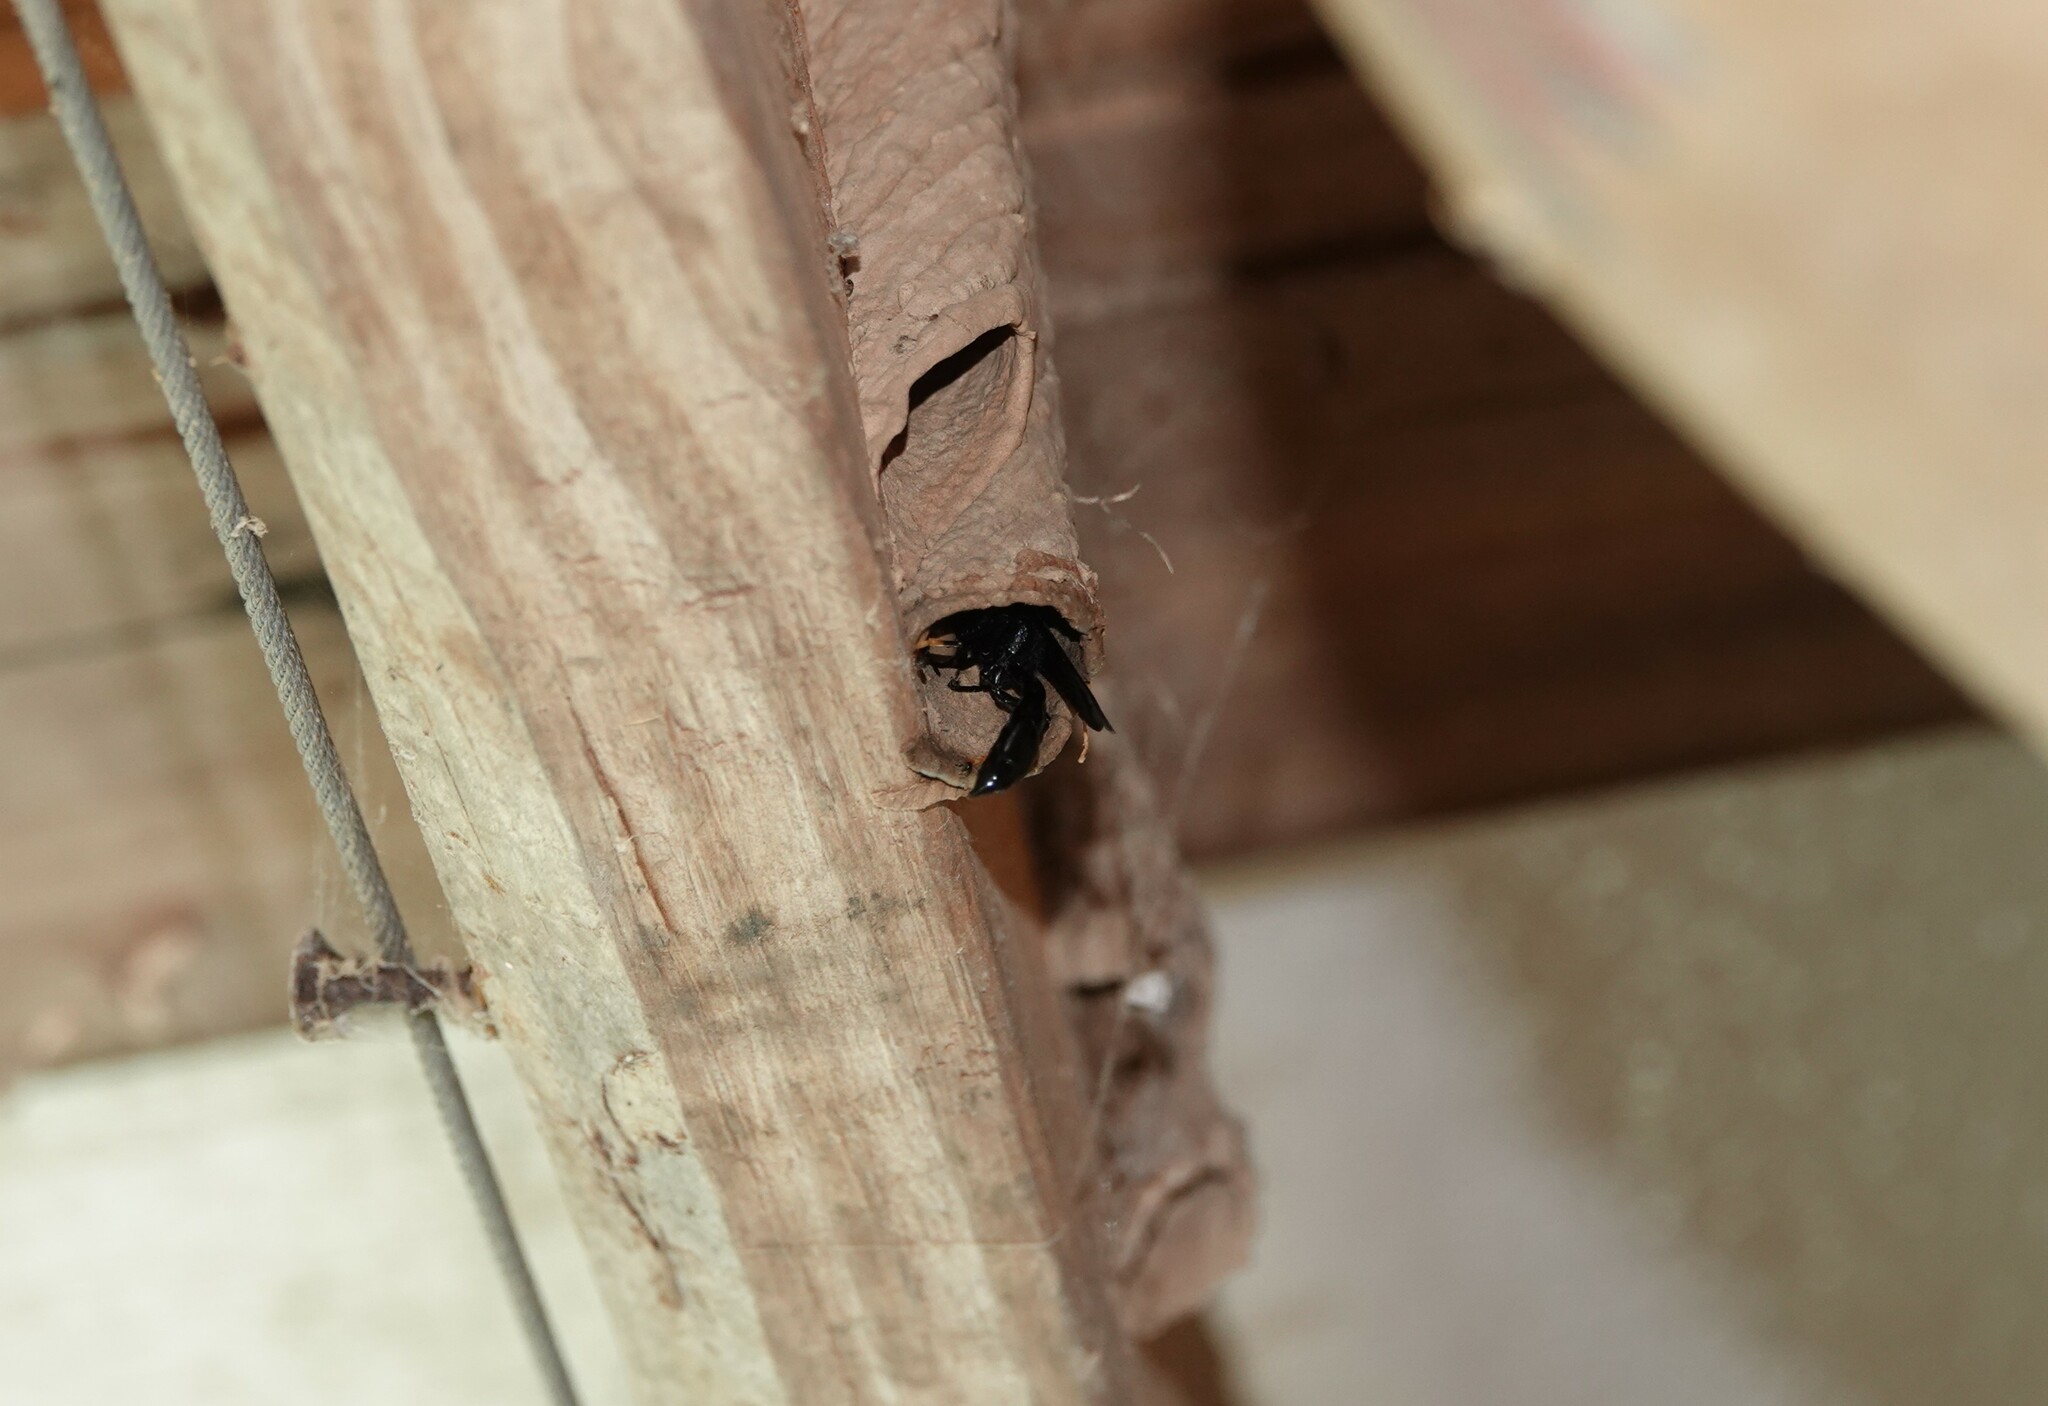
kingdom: Animalia
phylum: Arthropoda
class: Insecta
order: Hymenoptera
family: Crabronidae
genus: Trypoxylon
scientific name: Trypoxylon politum
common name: Organ-pipe mud-dauber wasp
